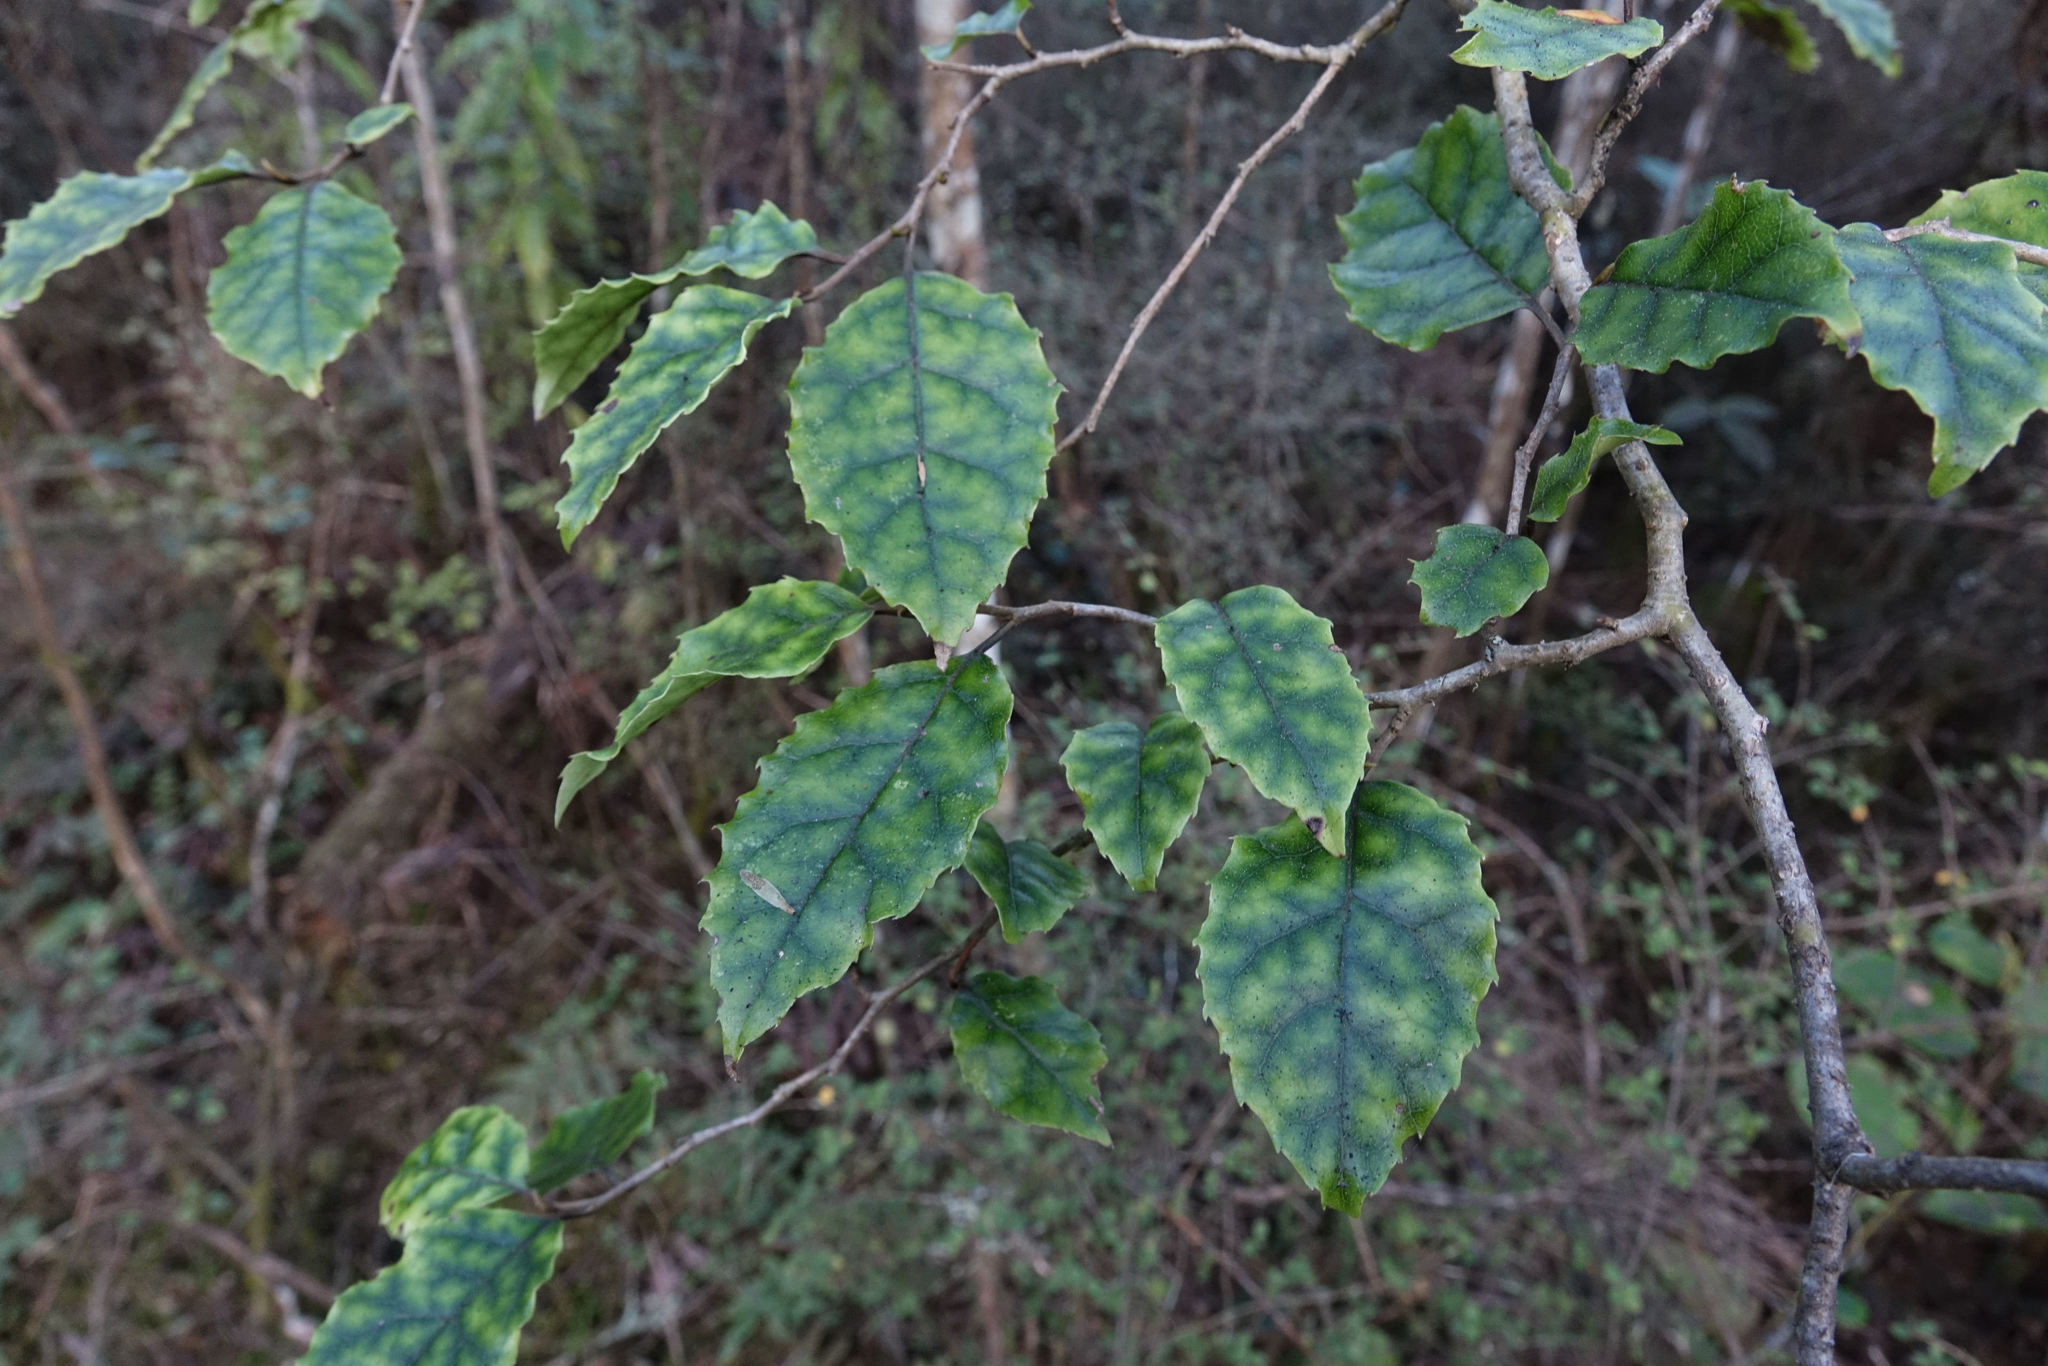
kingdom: Plantae
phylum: Tracheophyta
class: Magnoliopsida
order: Asterales
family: Rousseaceae
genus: Carpodetus
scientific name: Carpodetus serratus
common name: White mapau
